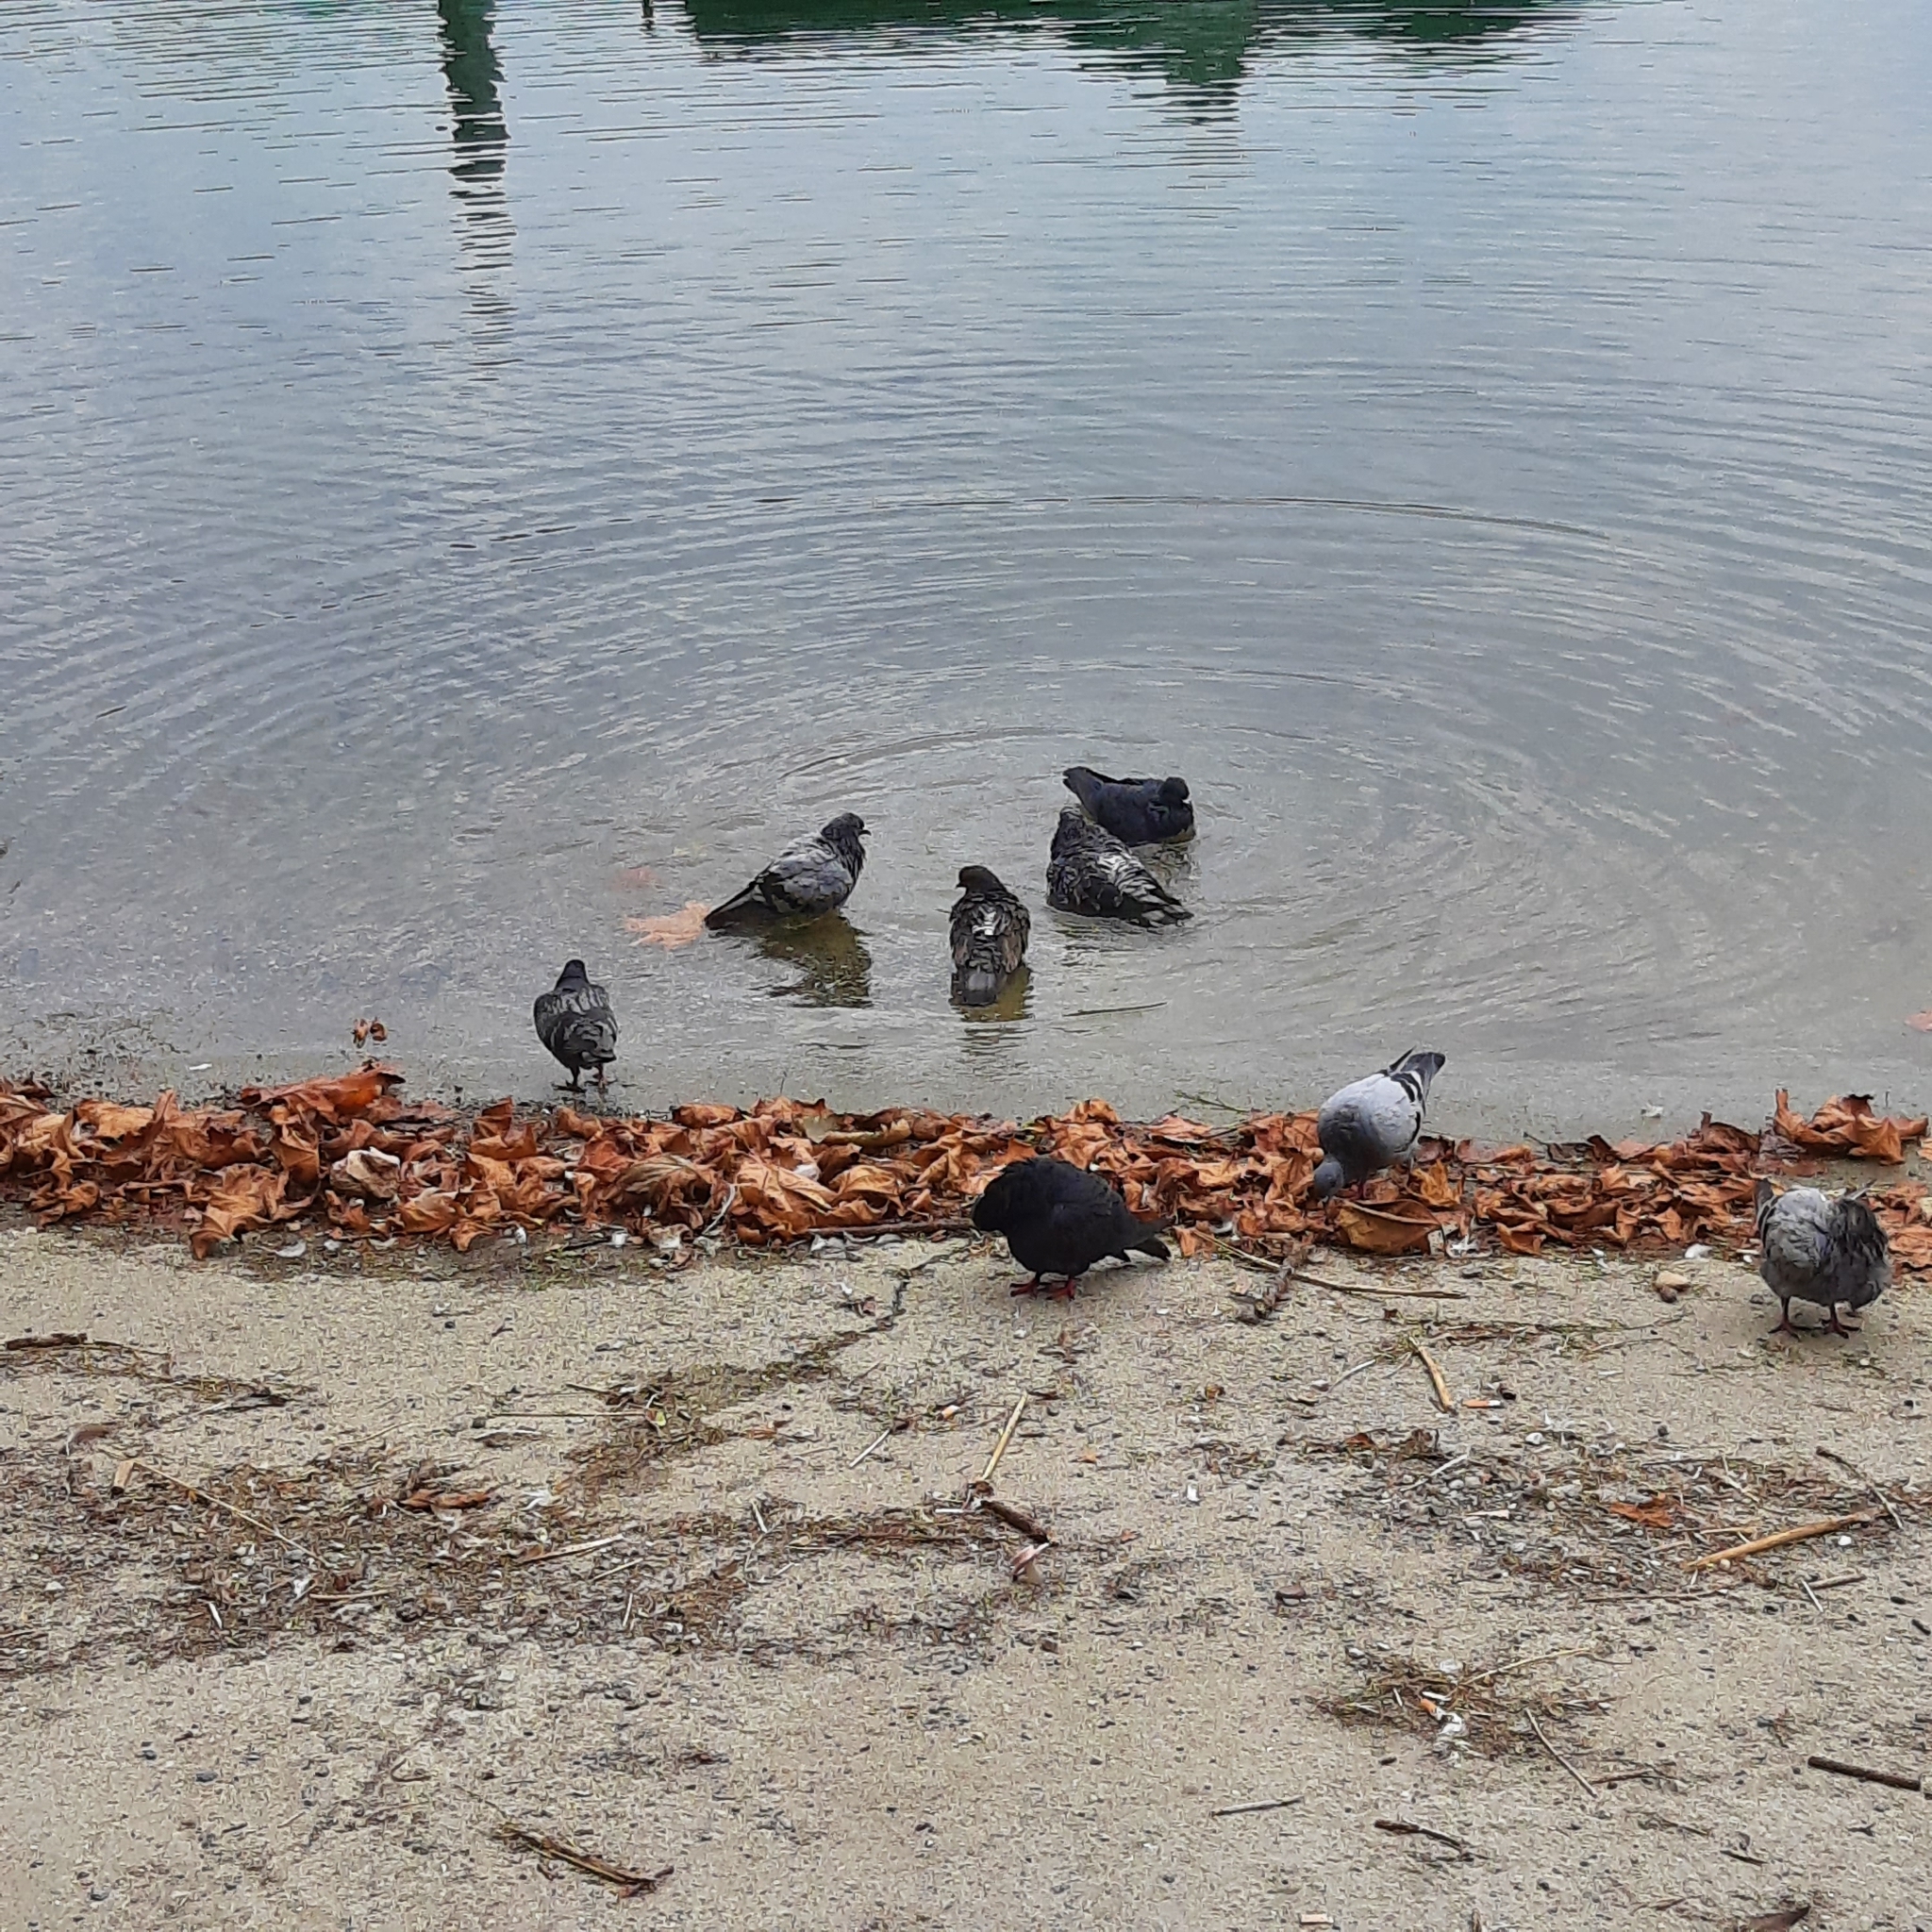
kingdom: Animalia
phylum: Chordata
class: Aves
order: Columbiformes
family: Columbidae
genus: Columba
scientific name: Columba livia
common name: Rock pigeon
